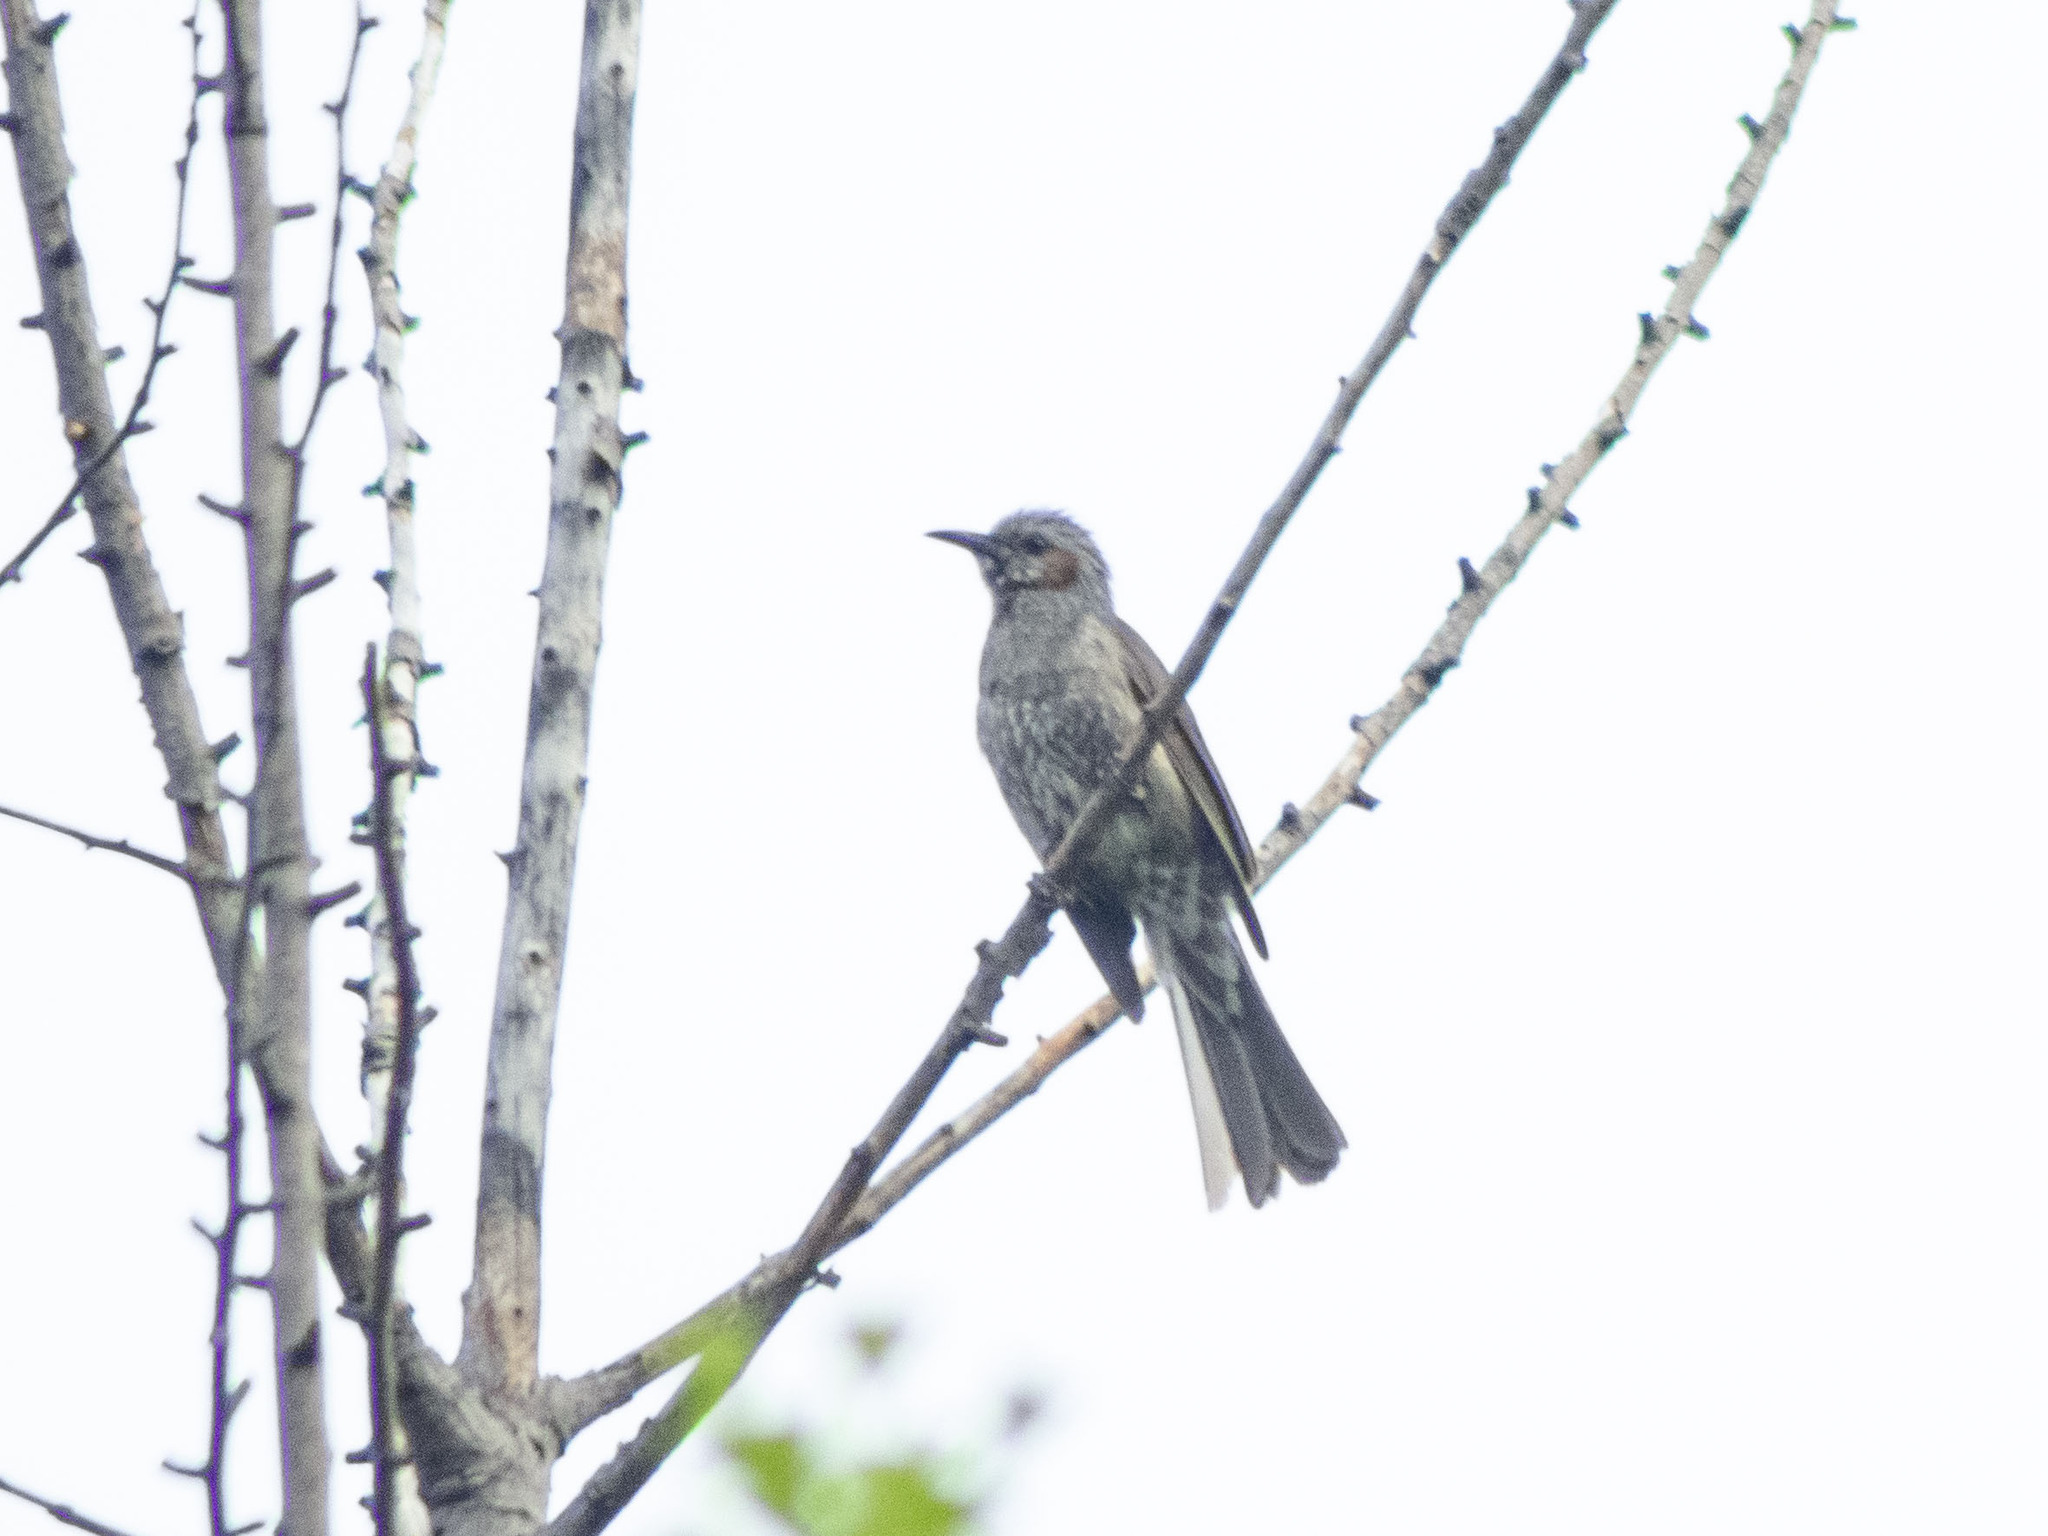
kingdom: Animalia
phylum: Chordata
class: Aves
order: Passeriformes
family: Pycnonotidae
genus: Hypsipetes
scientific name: Hypsipetes amaurotis
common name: Brown-eared bulbul
